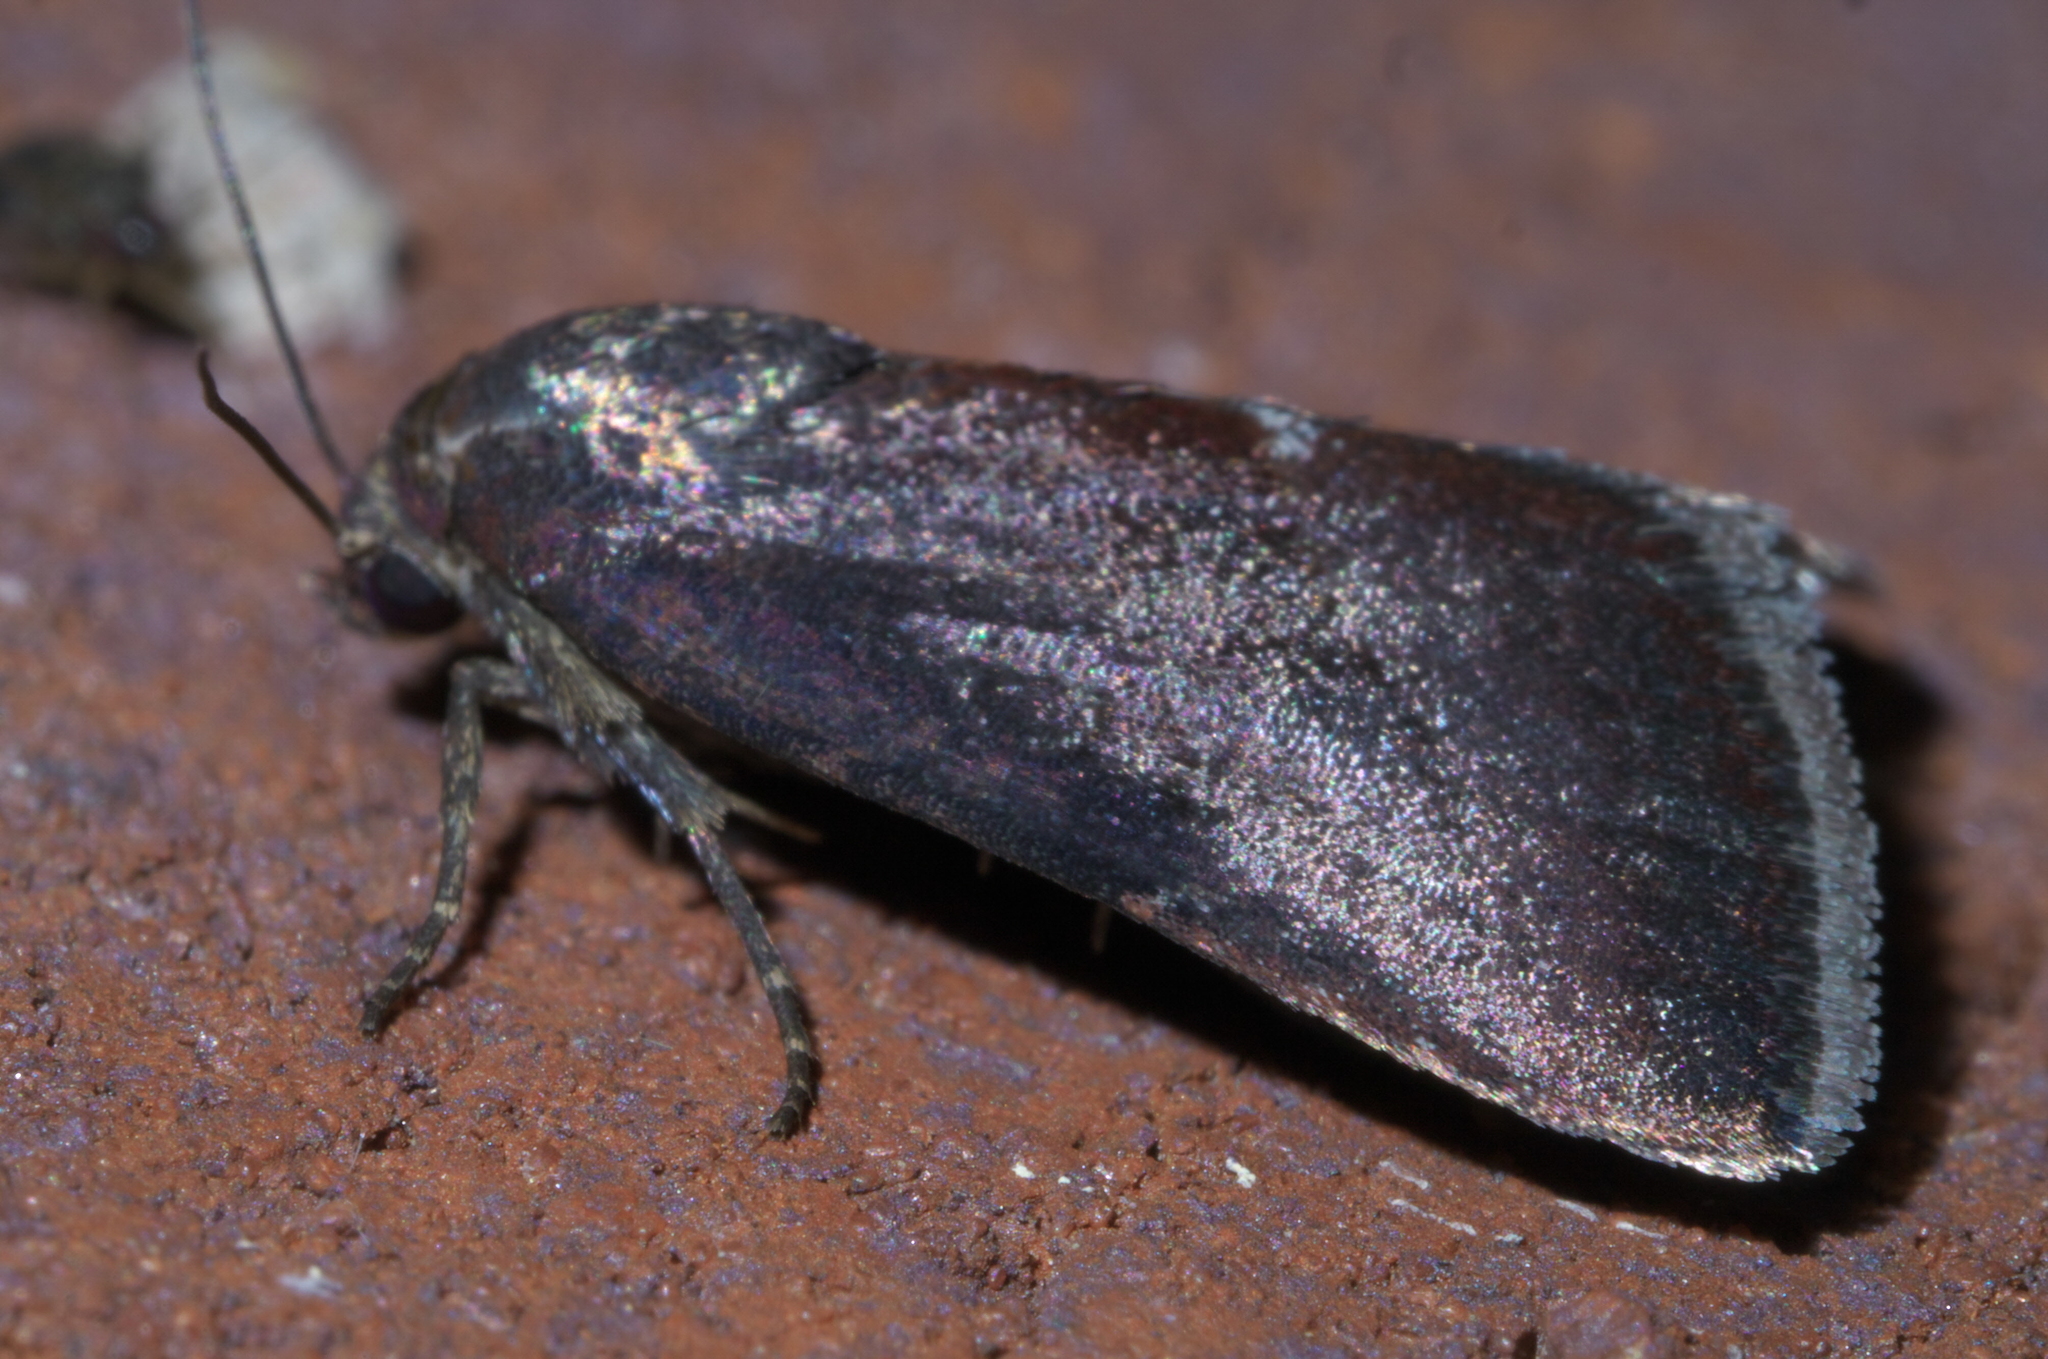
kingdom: Animalia
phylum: Arthropoda
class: Insecta
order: Lepidoptera
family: Noctuidae
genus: Galgula
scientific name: Galgula partita
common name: Wedgeling
